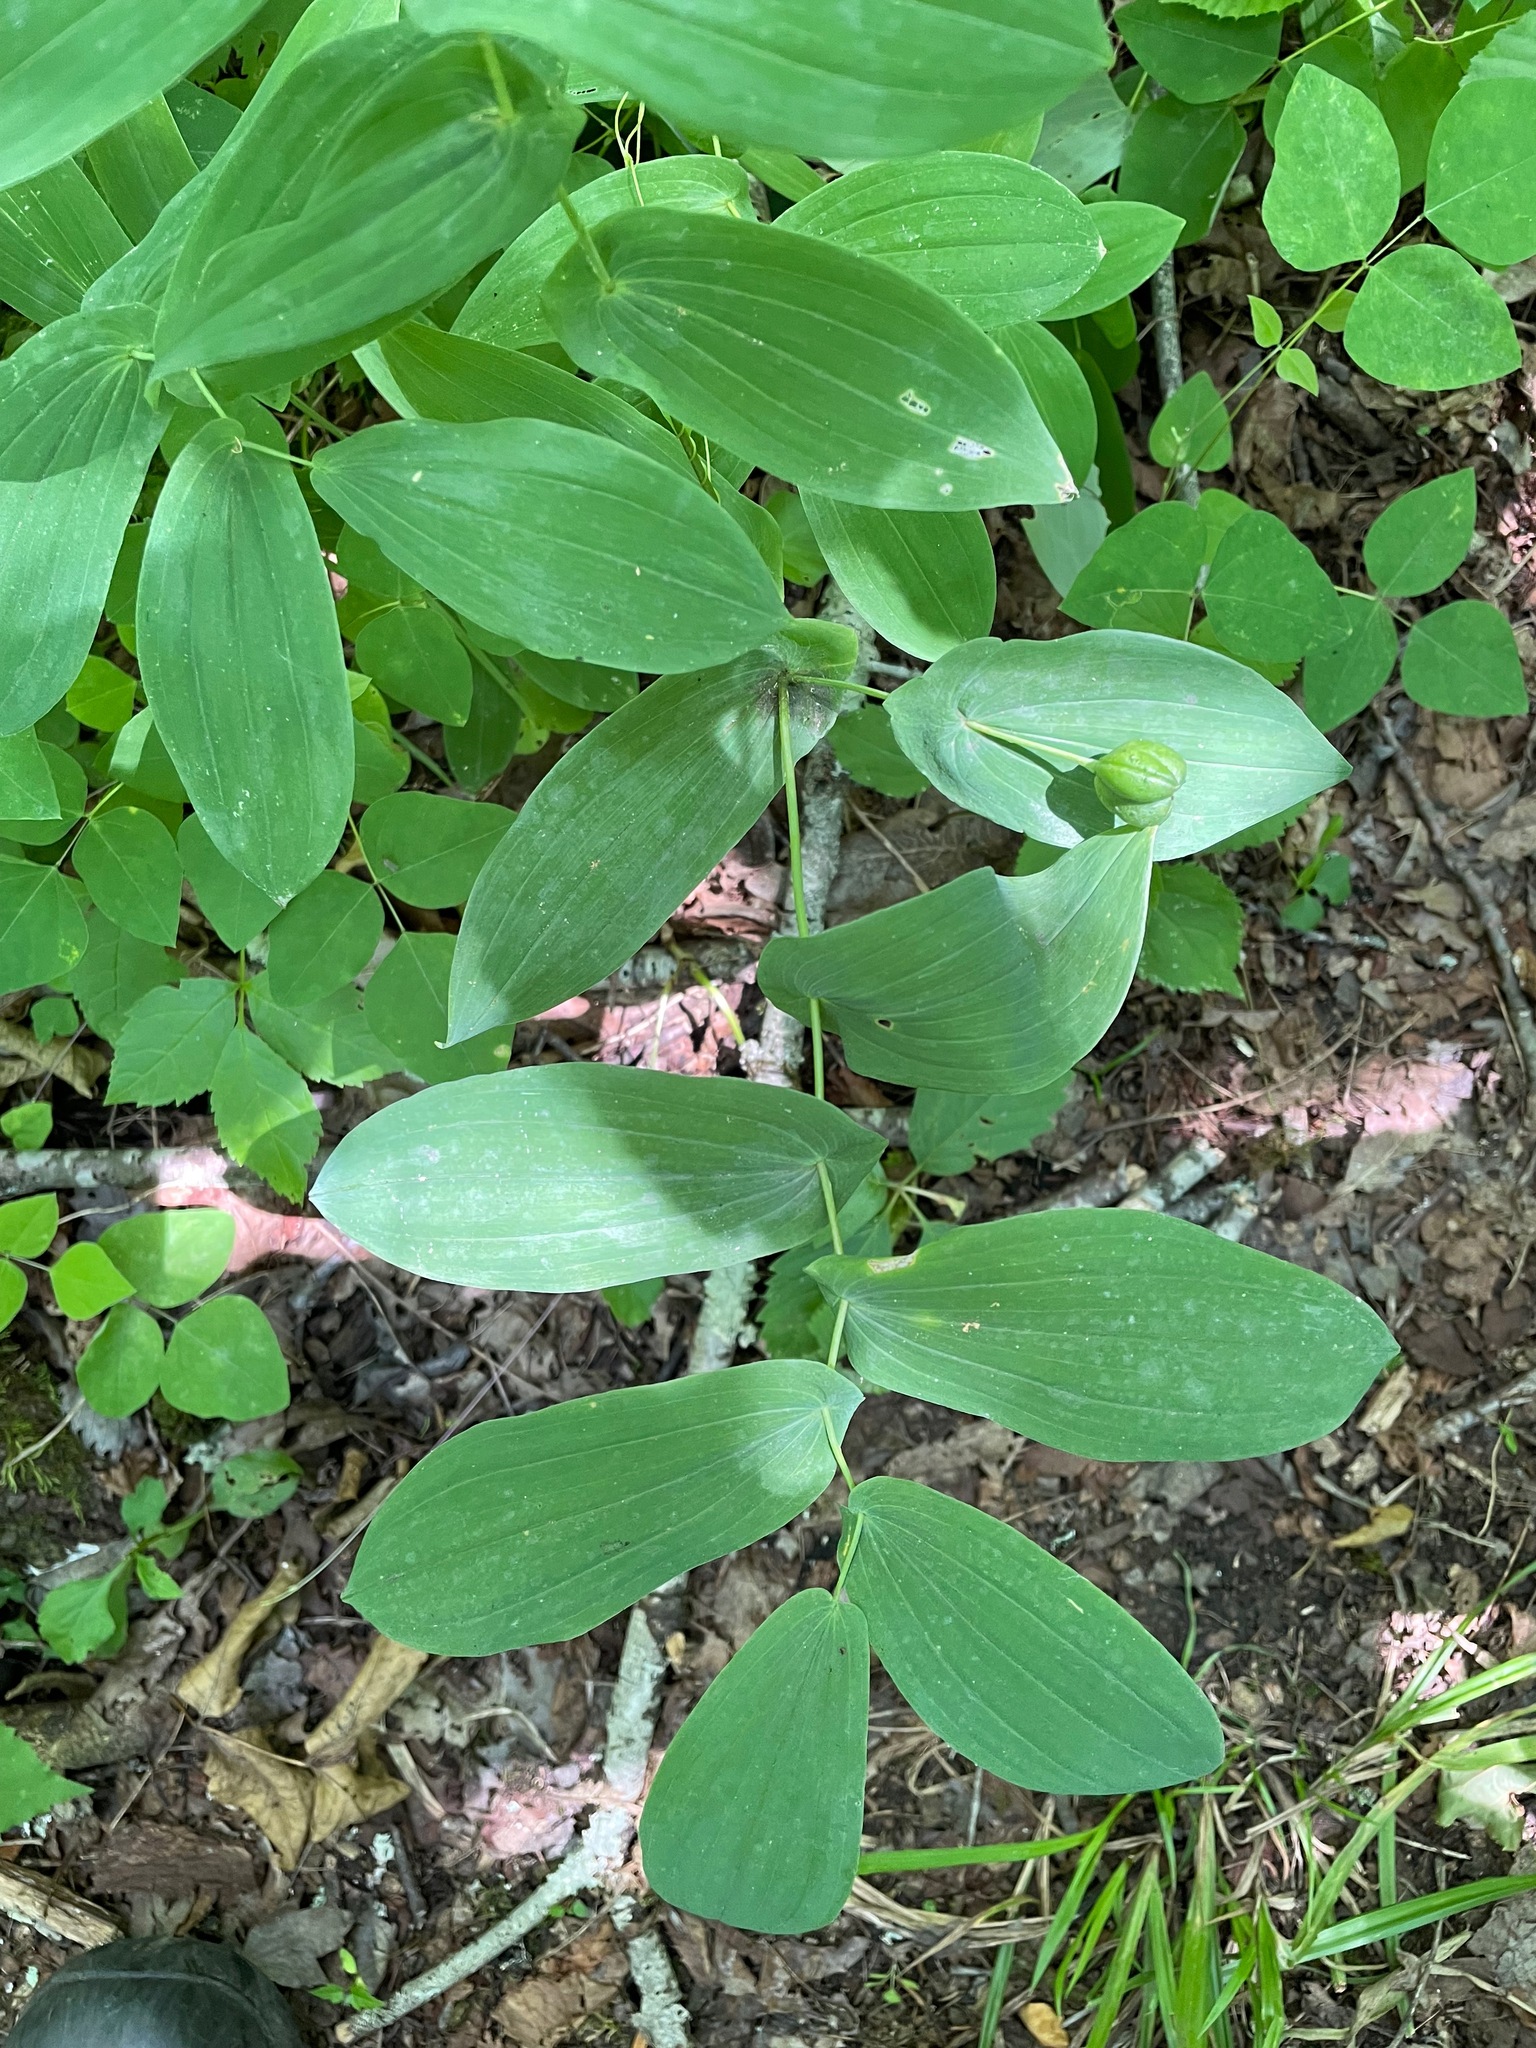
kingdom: Plantae
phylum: Tracheophyta
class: Liliopsida
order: Liliales
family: Colchicaceae
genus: Uvularia
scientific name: Uvularia grandiflora
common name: Bellwort
